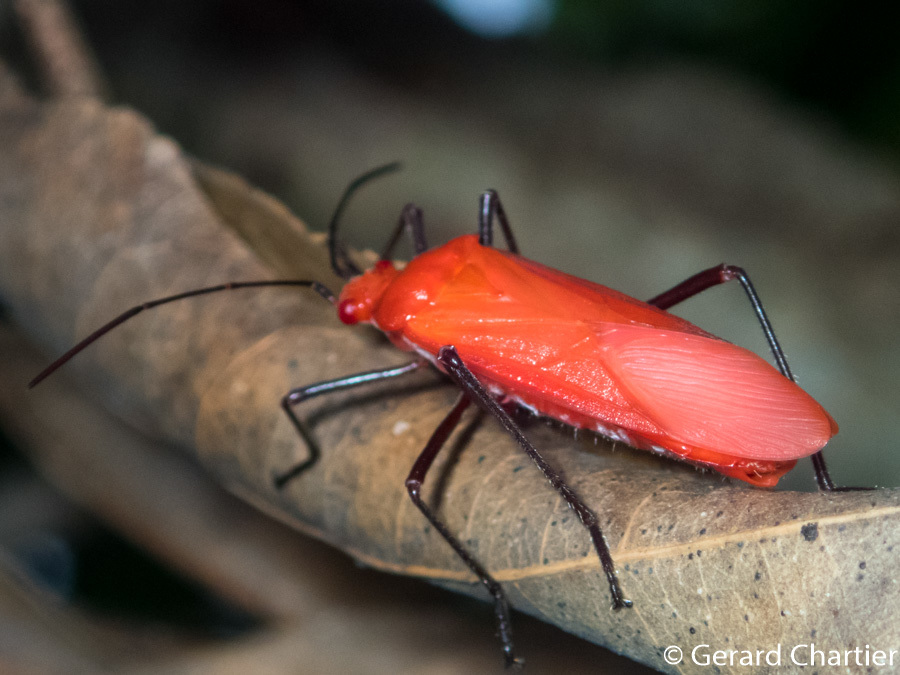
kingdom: Animalia
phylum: Arthropoda
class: Insecta
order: Hemiptera
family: Rhopalidae
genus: Leptocoris
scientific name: Leptocoris rufomarginatus
